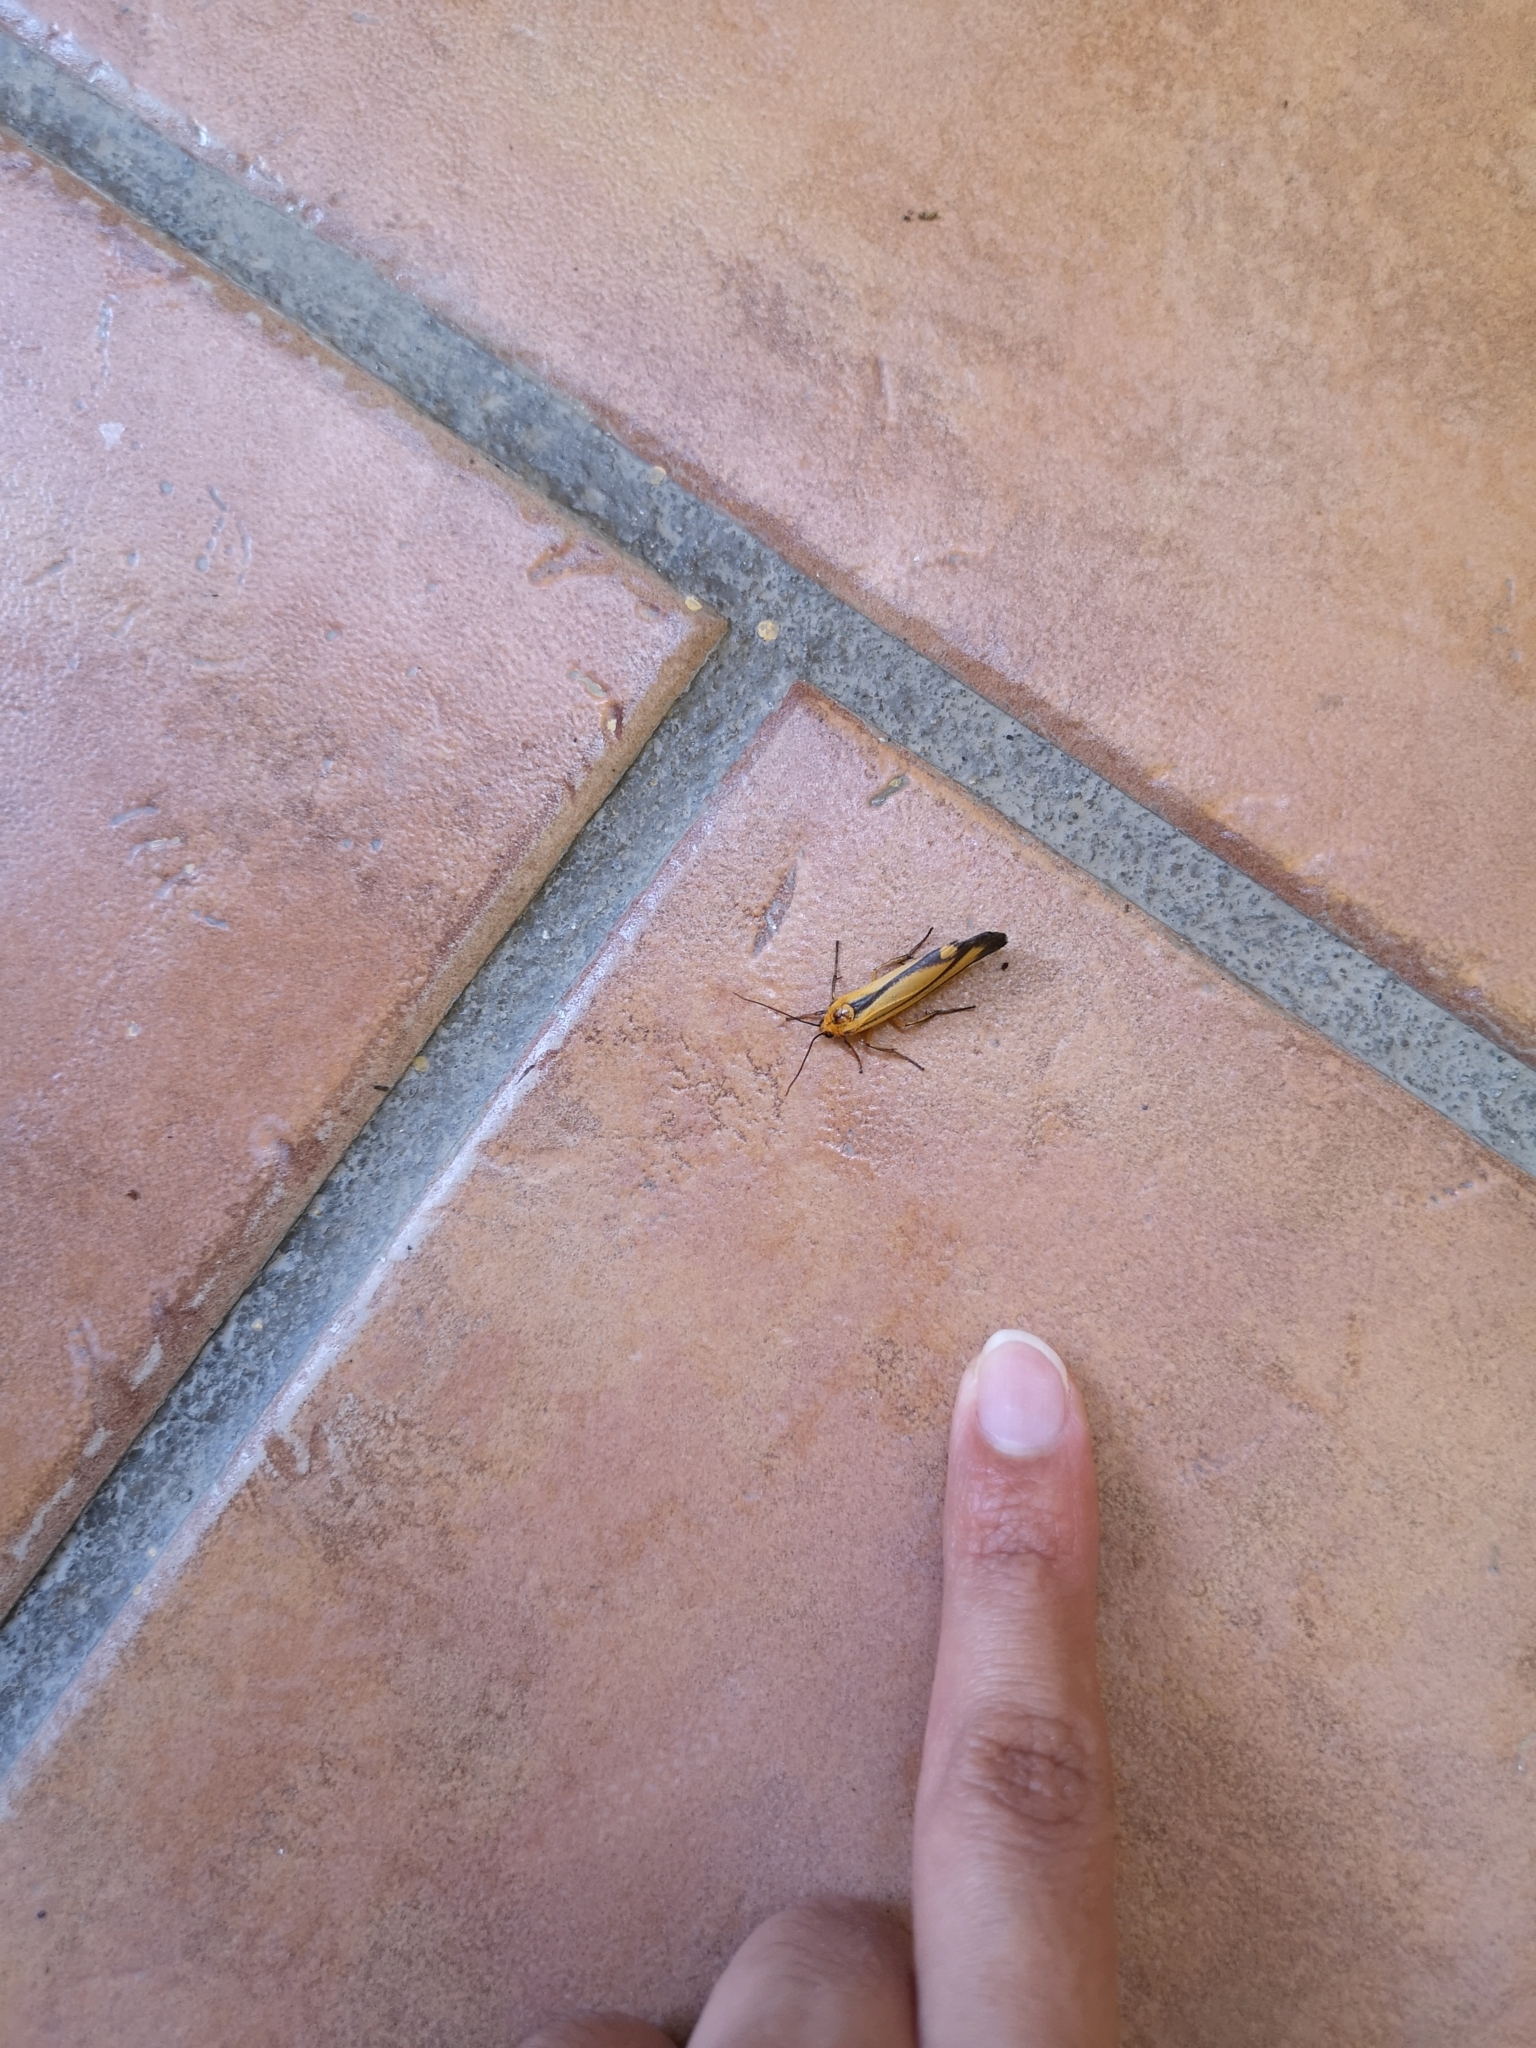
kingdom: Animalia
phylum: Arthropoda
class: Insecta
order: Lepidoptera
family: Erebidae
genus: Eurylomia
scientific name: Eurylomia cordula
